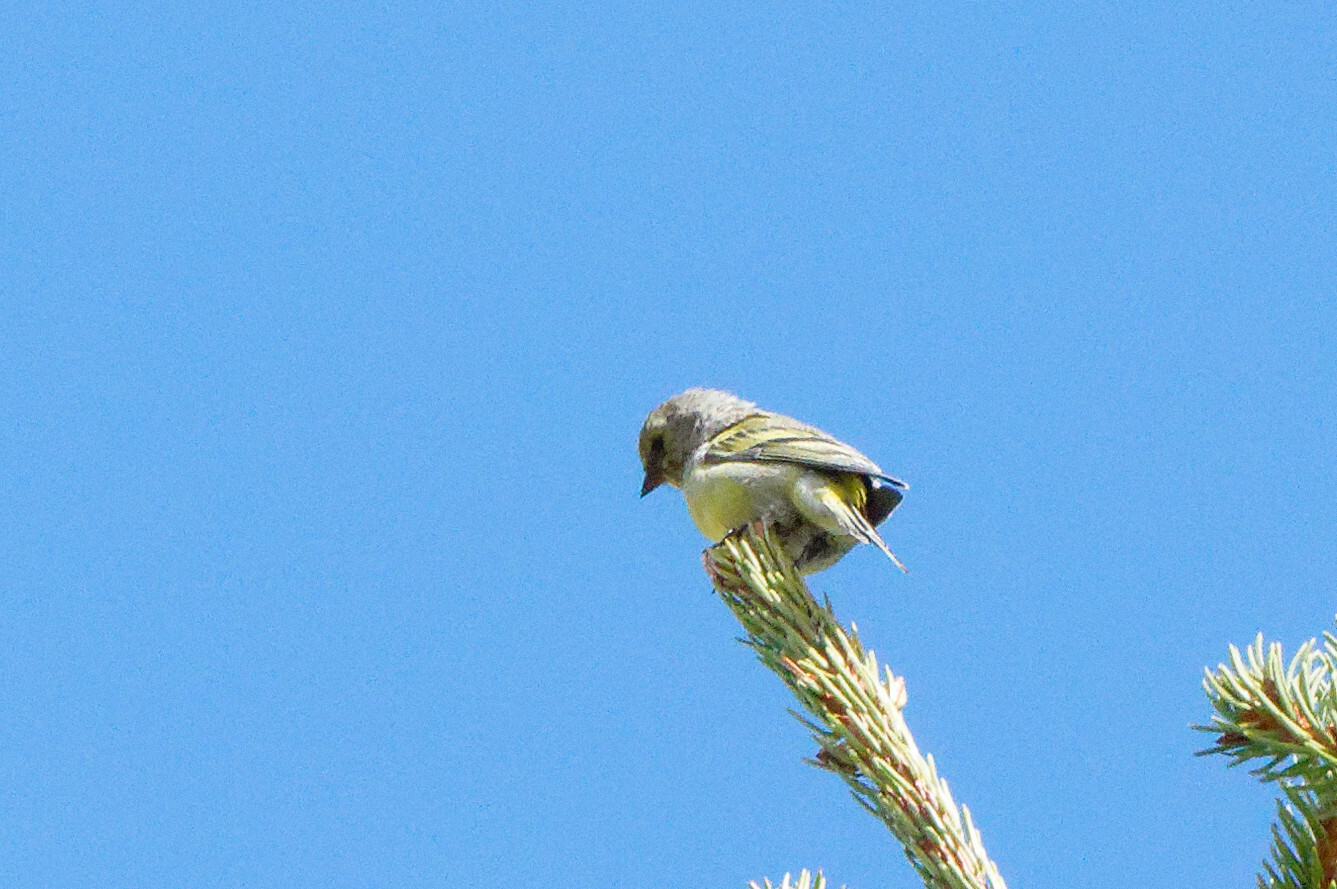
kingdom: Animalia
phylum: Chordata
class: Aves
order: Passeriformes
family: Fringillidae
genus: Carduelis
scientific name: Carduelis citrinella
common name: Citril finch
